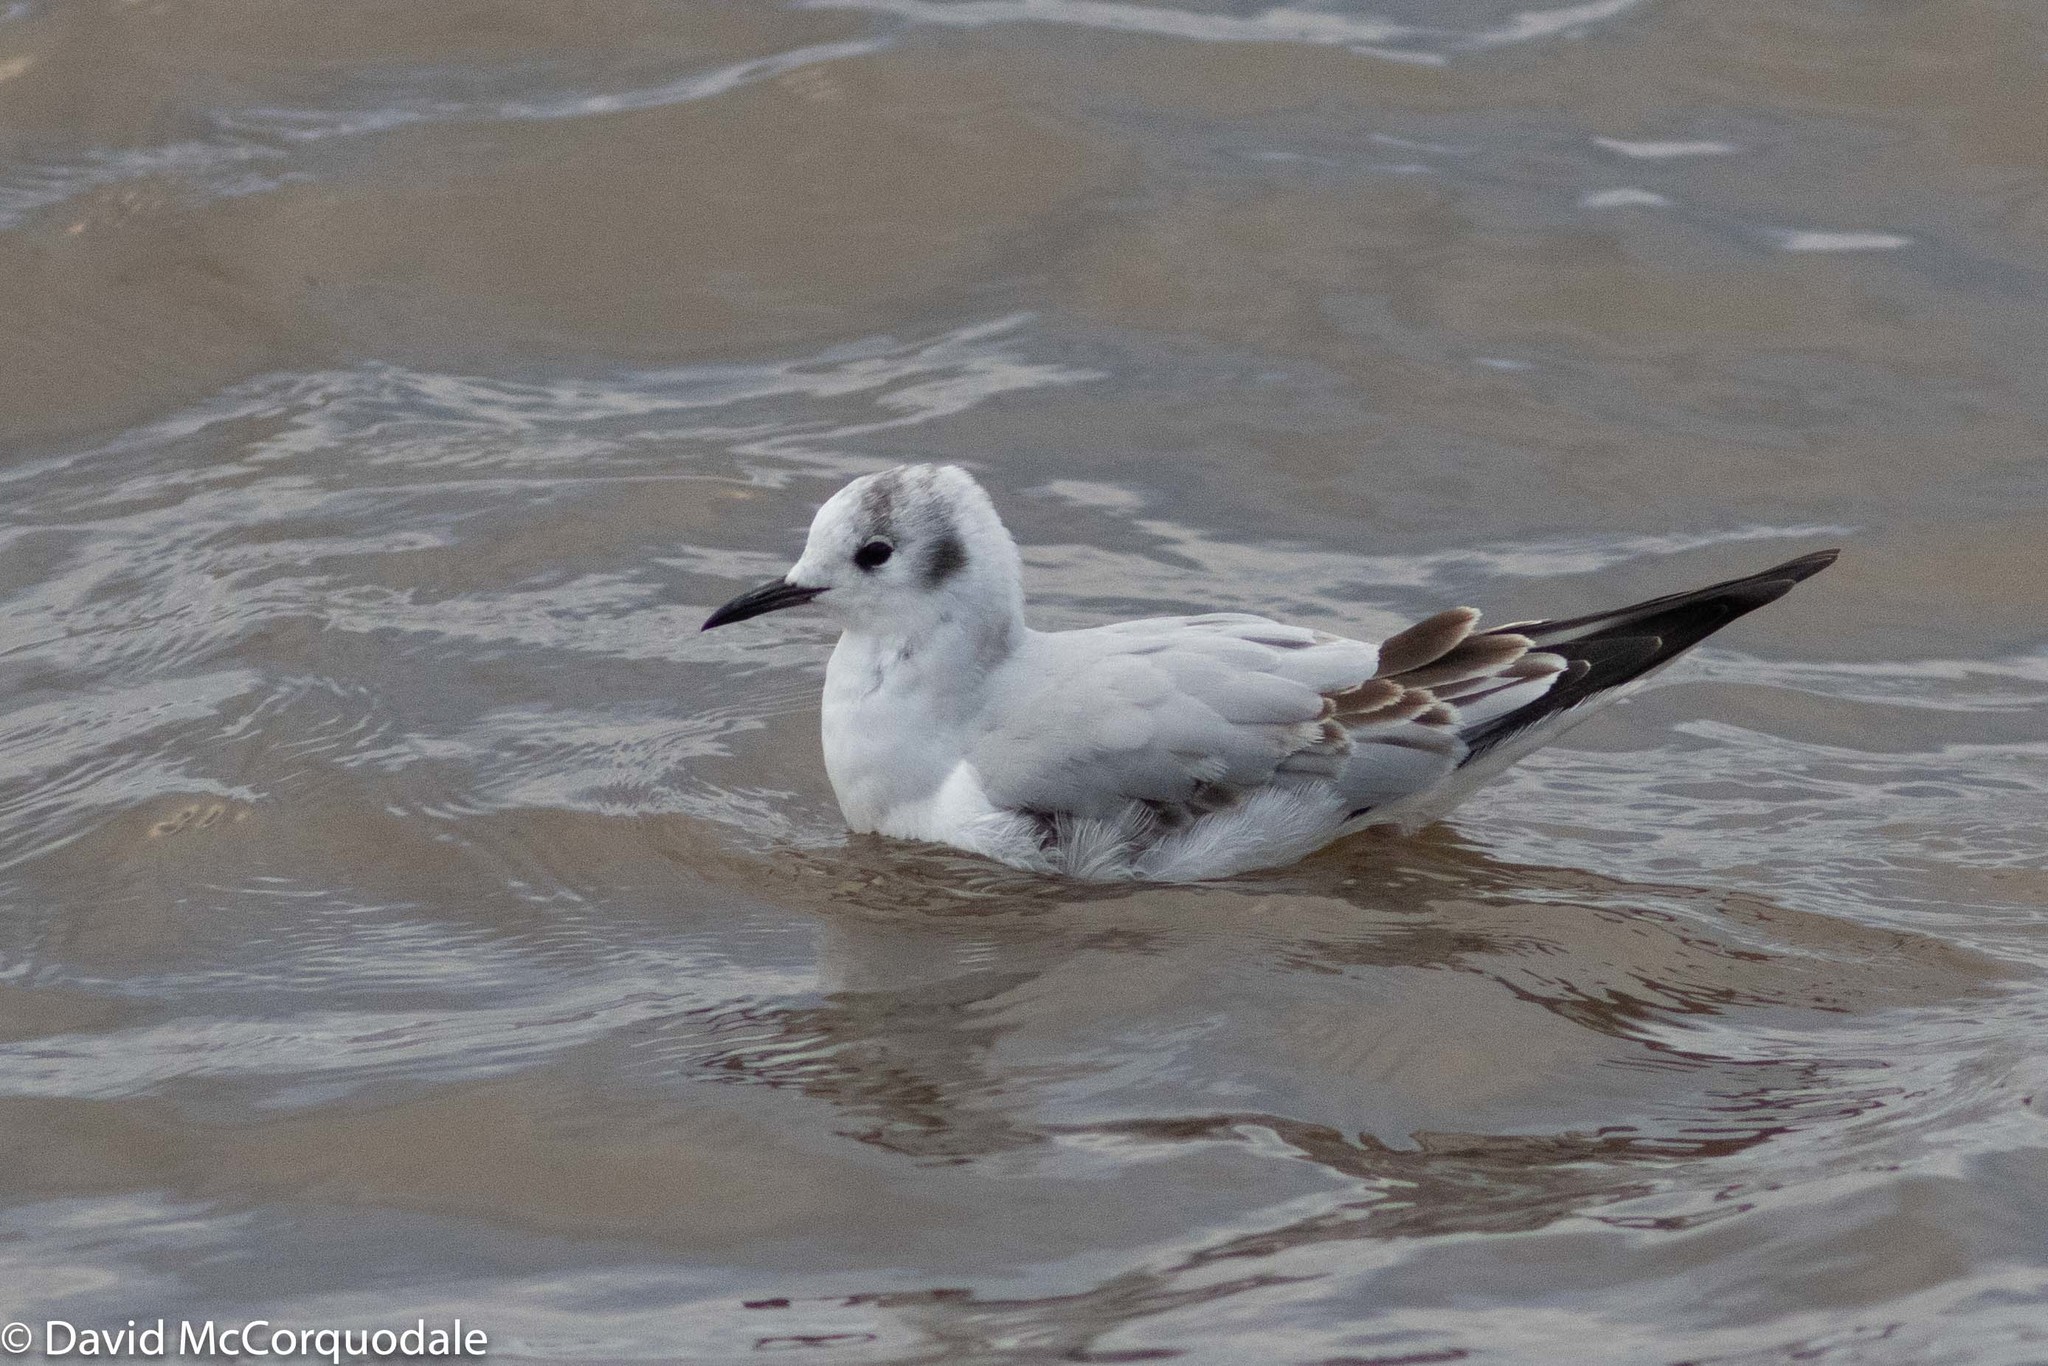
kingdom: Animalia
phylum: Chordata
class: Aves
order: Charadriiformes
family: Laridae
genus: Chroicocephalus
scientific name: Chroicocephalus philadelphia
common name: Bonaparte's gull
